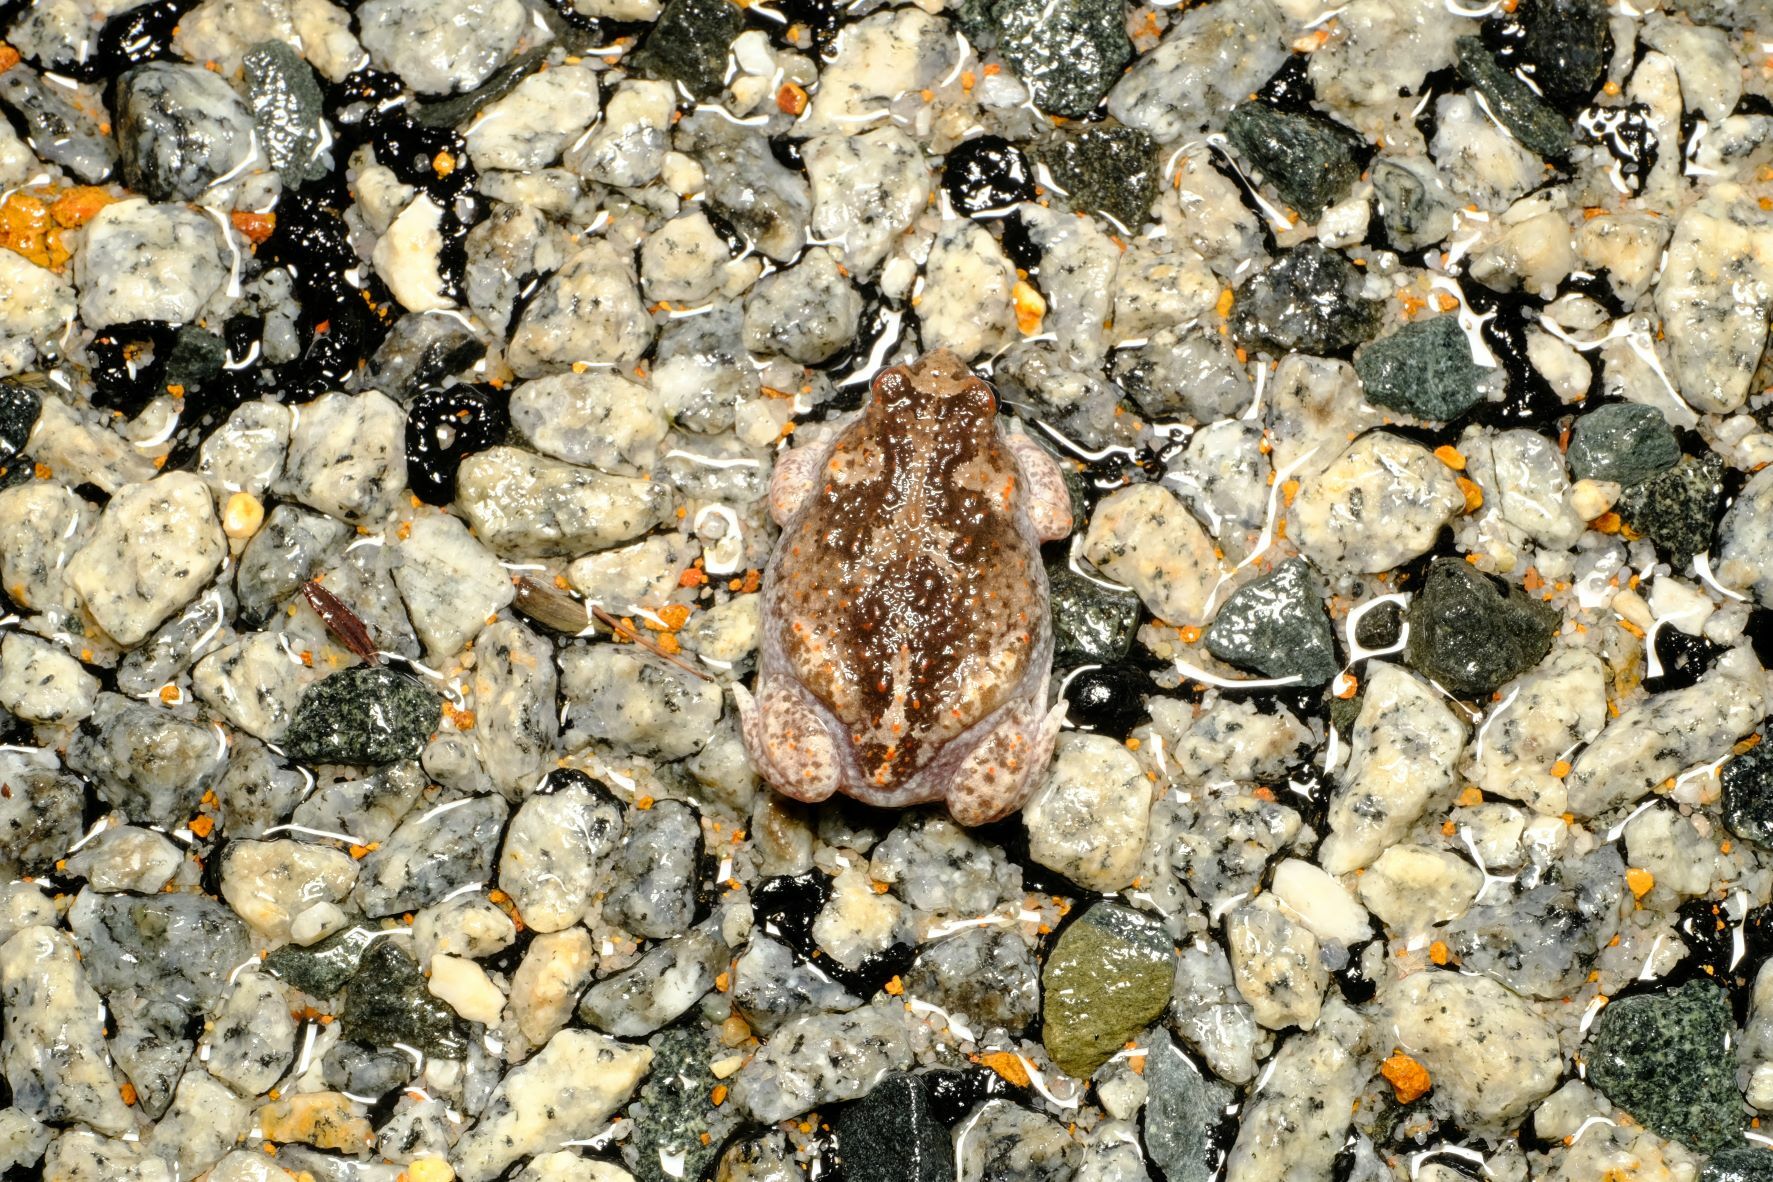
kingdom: Animalia
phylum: Chordata
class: Amphibia
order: Anura
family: Myobatrachidae
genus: Pseudophryne
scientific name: Pseudophryne guentheri
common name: Günther’s toadlet
